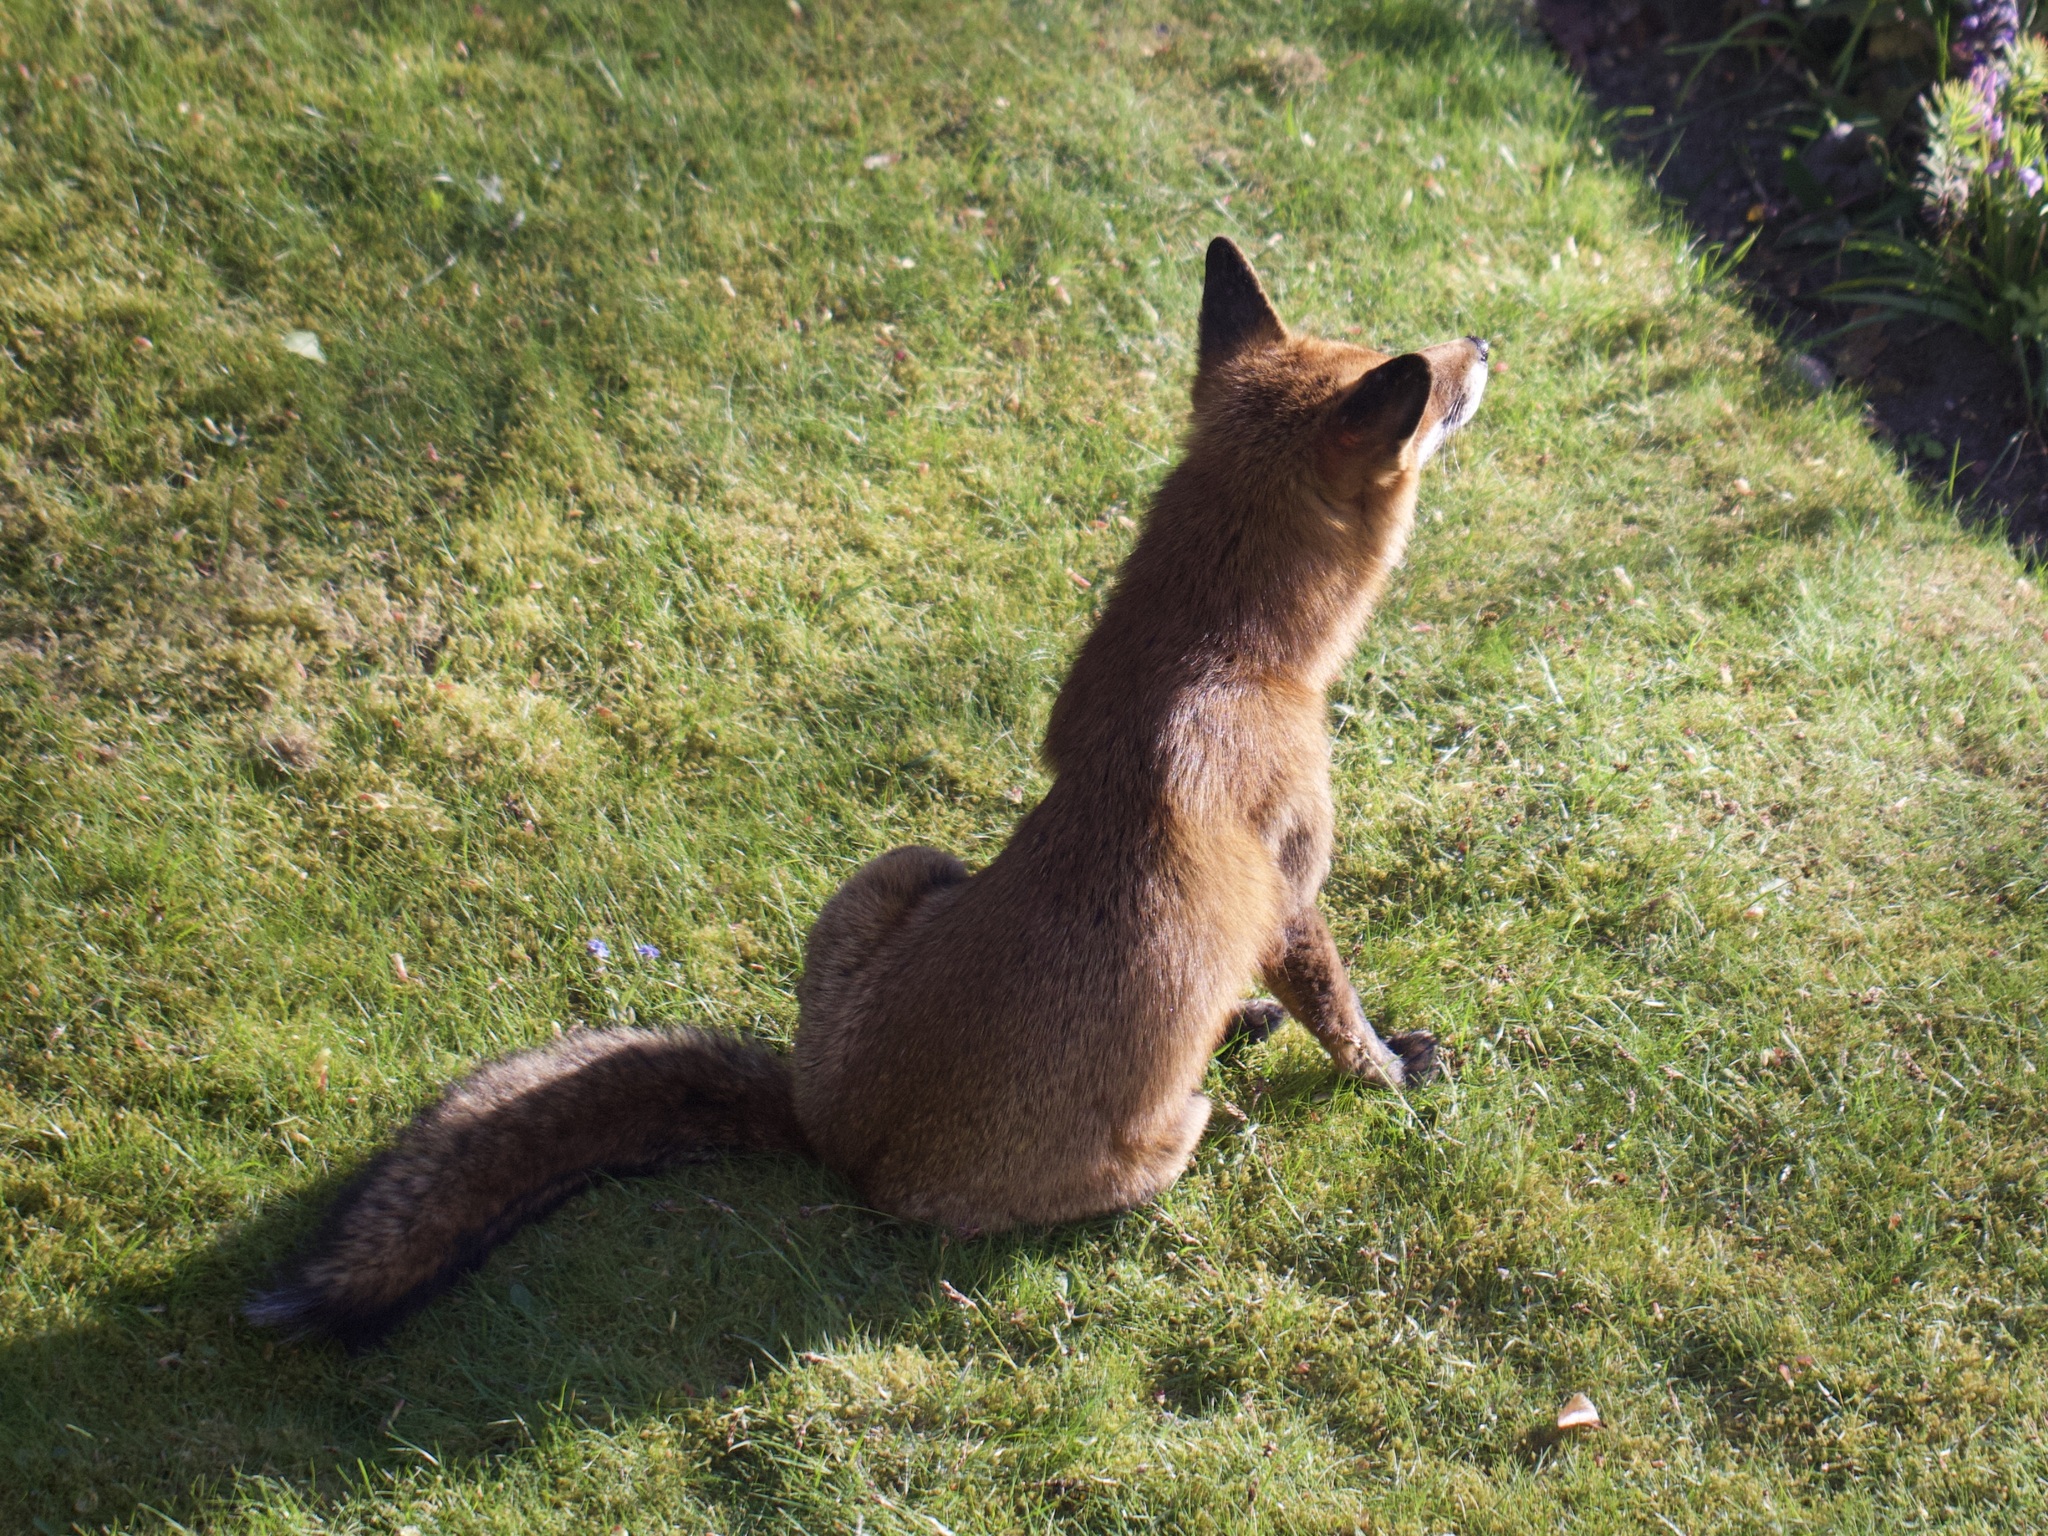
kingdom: Animalia
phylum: Chordata
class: Mammalia
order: Carnivora
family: Canidae
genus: Vulpes
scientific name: Vulpes vulpes
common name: Red fox
